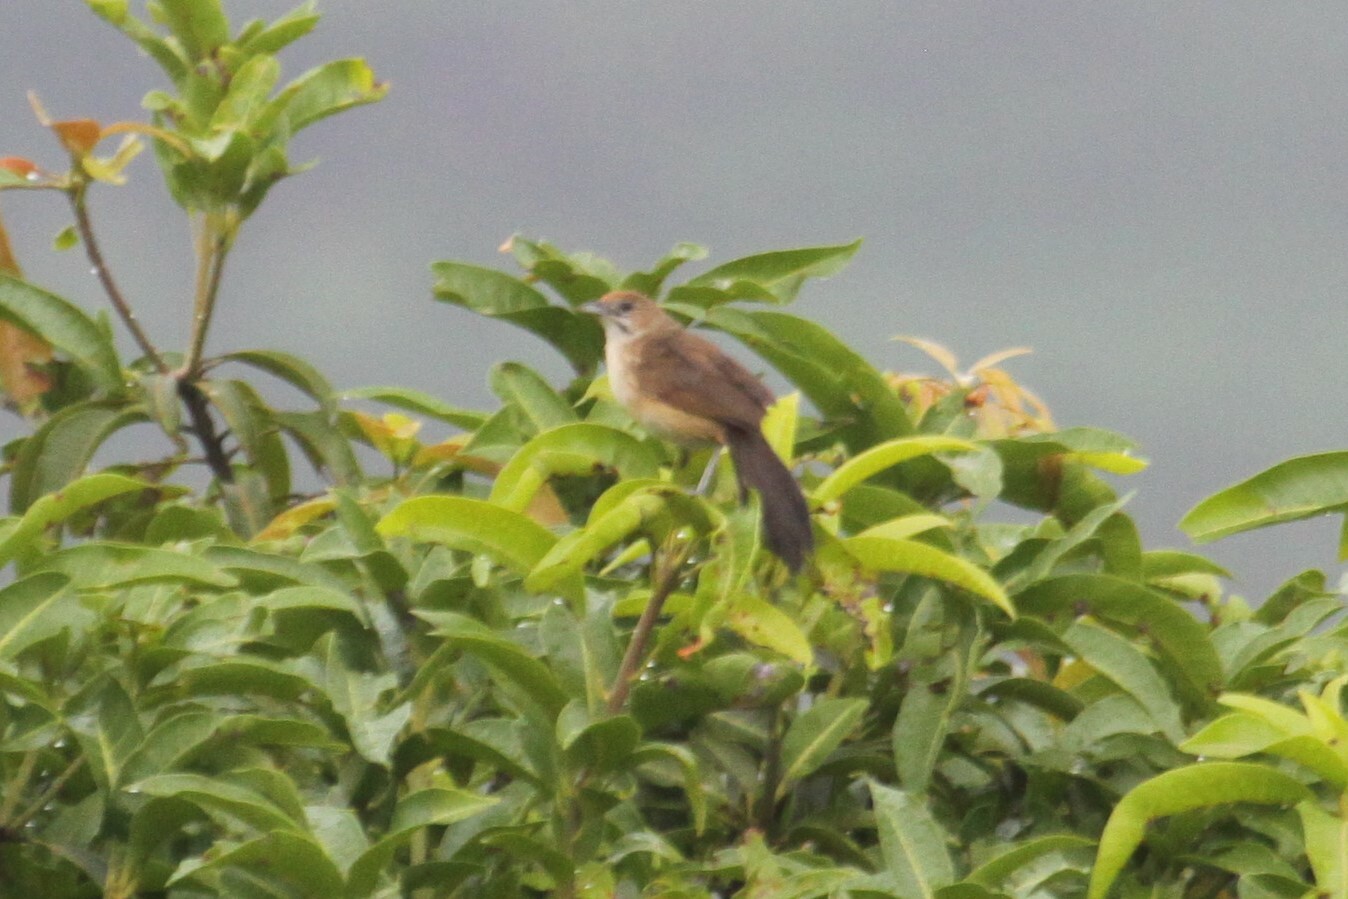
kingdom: Animalia
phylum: Chordata
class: Aves
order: Passeriformes
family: Macrosphenidae
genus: Melocichla
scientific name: Melocichla mentalis
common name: Moustached grass warbler
